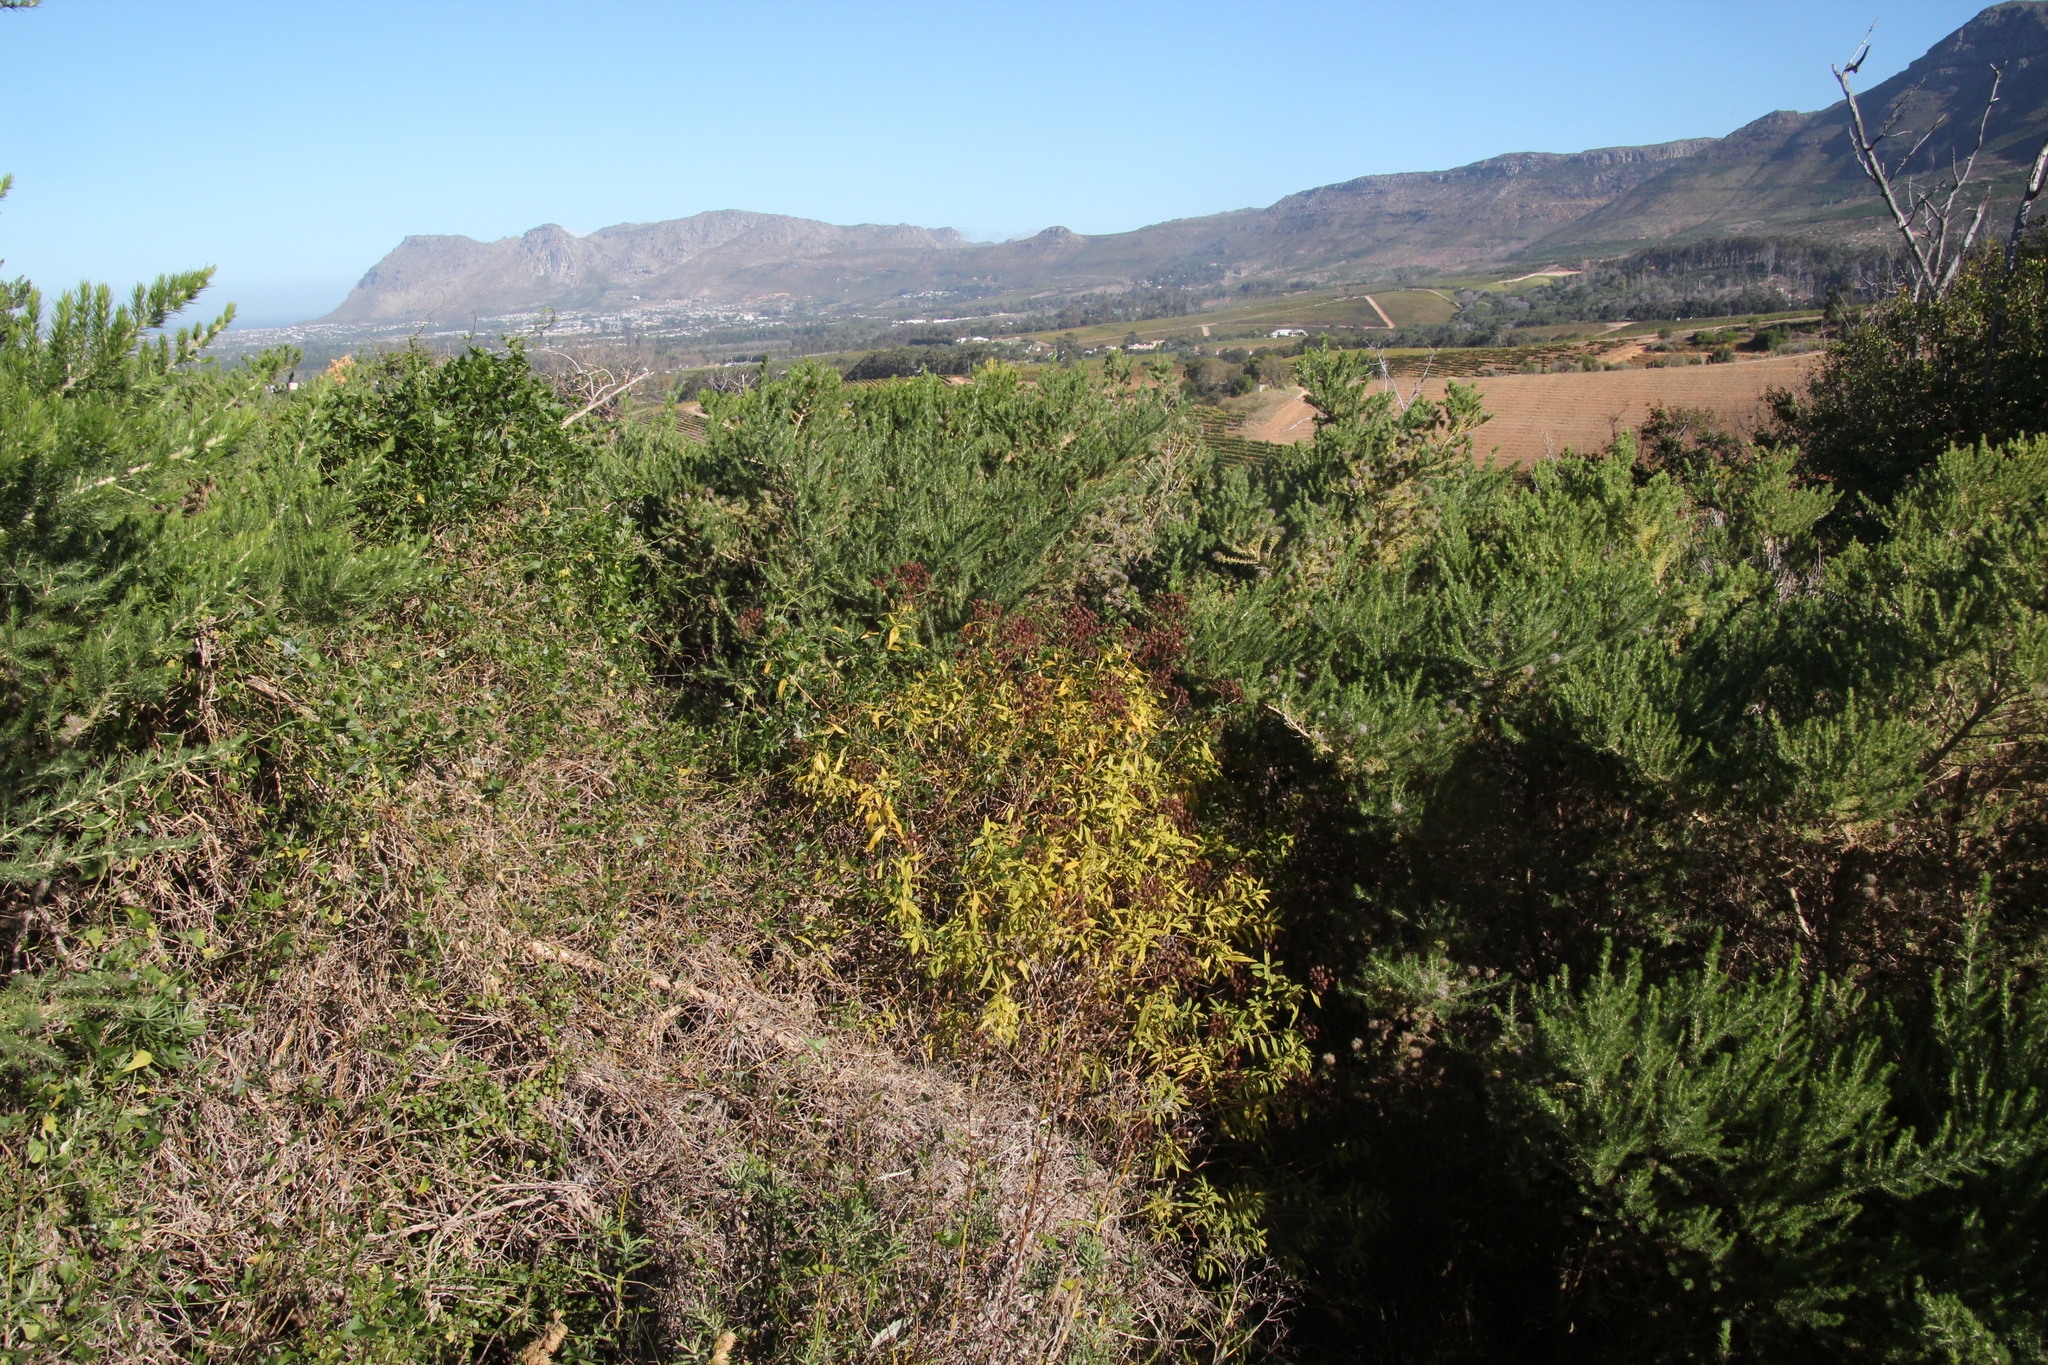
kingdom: Plantae
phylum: Tracheophyta
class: Magnoliopsida
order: Malpighiales
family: Hypericaceae
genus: Hypericum
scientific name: Hypericum canariense
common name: Canary island st. johnswort
